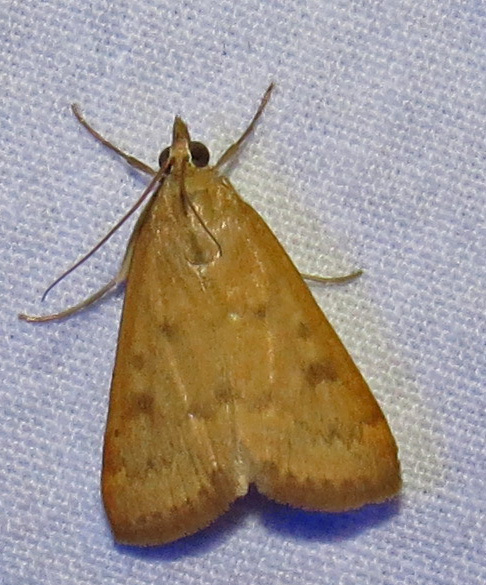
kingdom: Animalia
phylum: Arthropoda
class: Insecta
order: Lepidoptera
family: Crambidae
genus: Achyra
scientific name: Achyra rantalis
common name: Garden webworm
